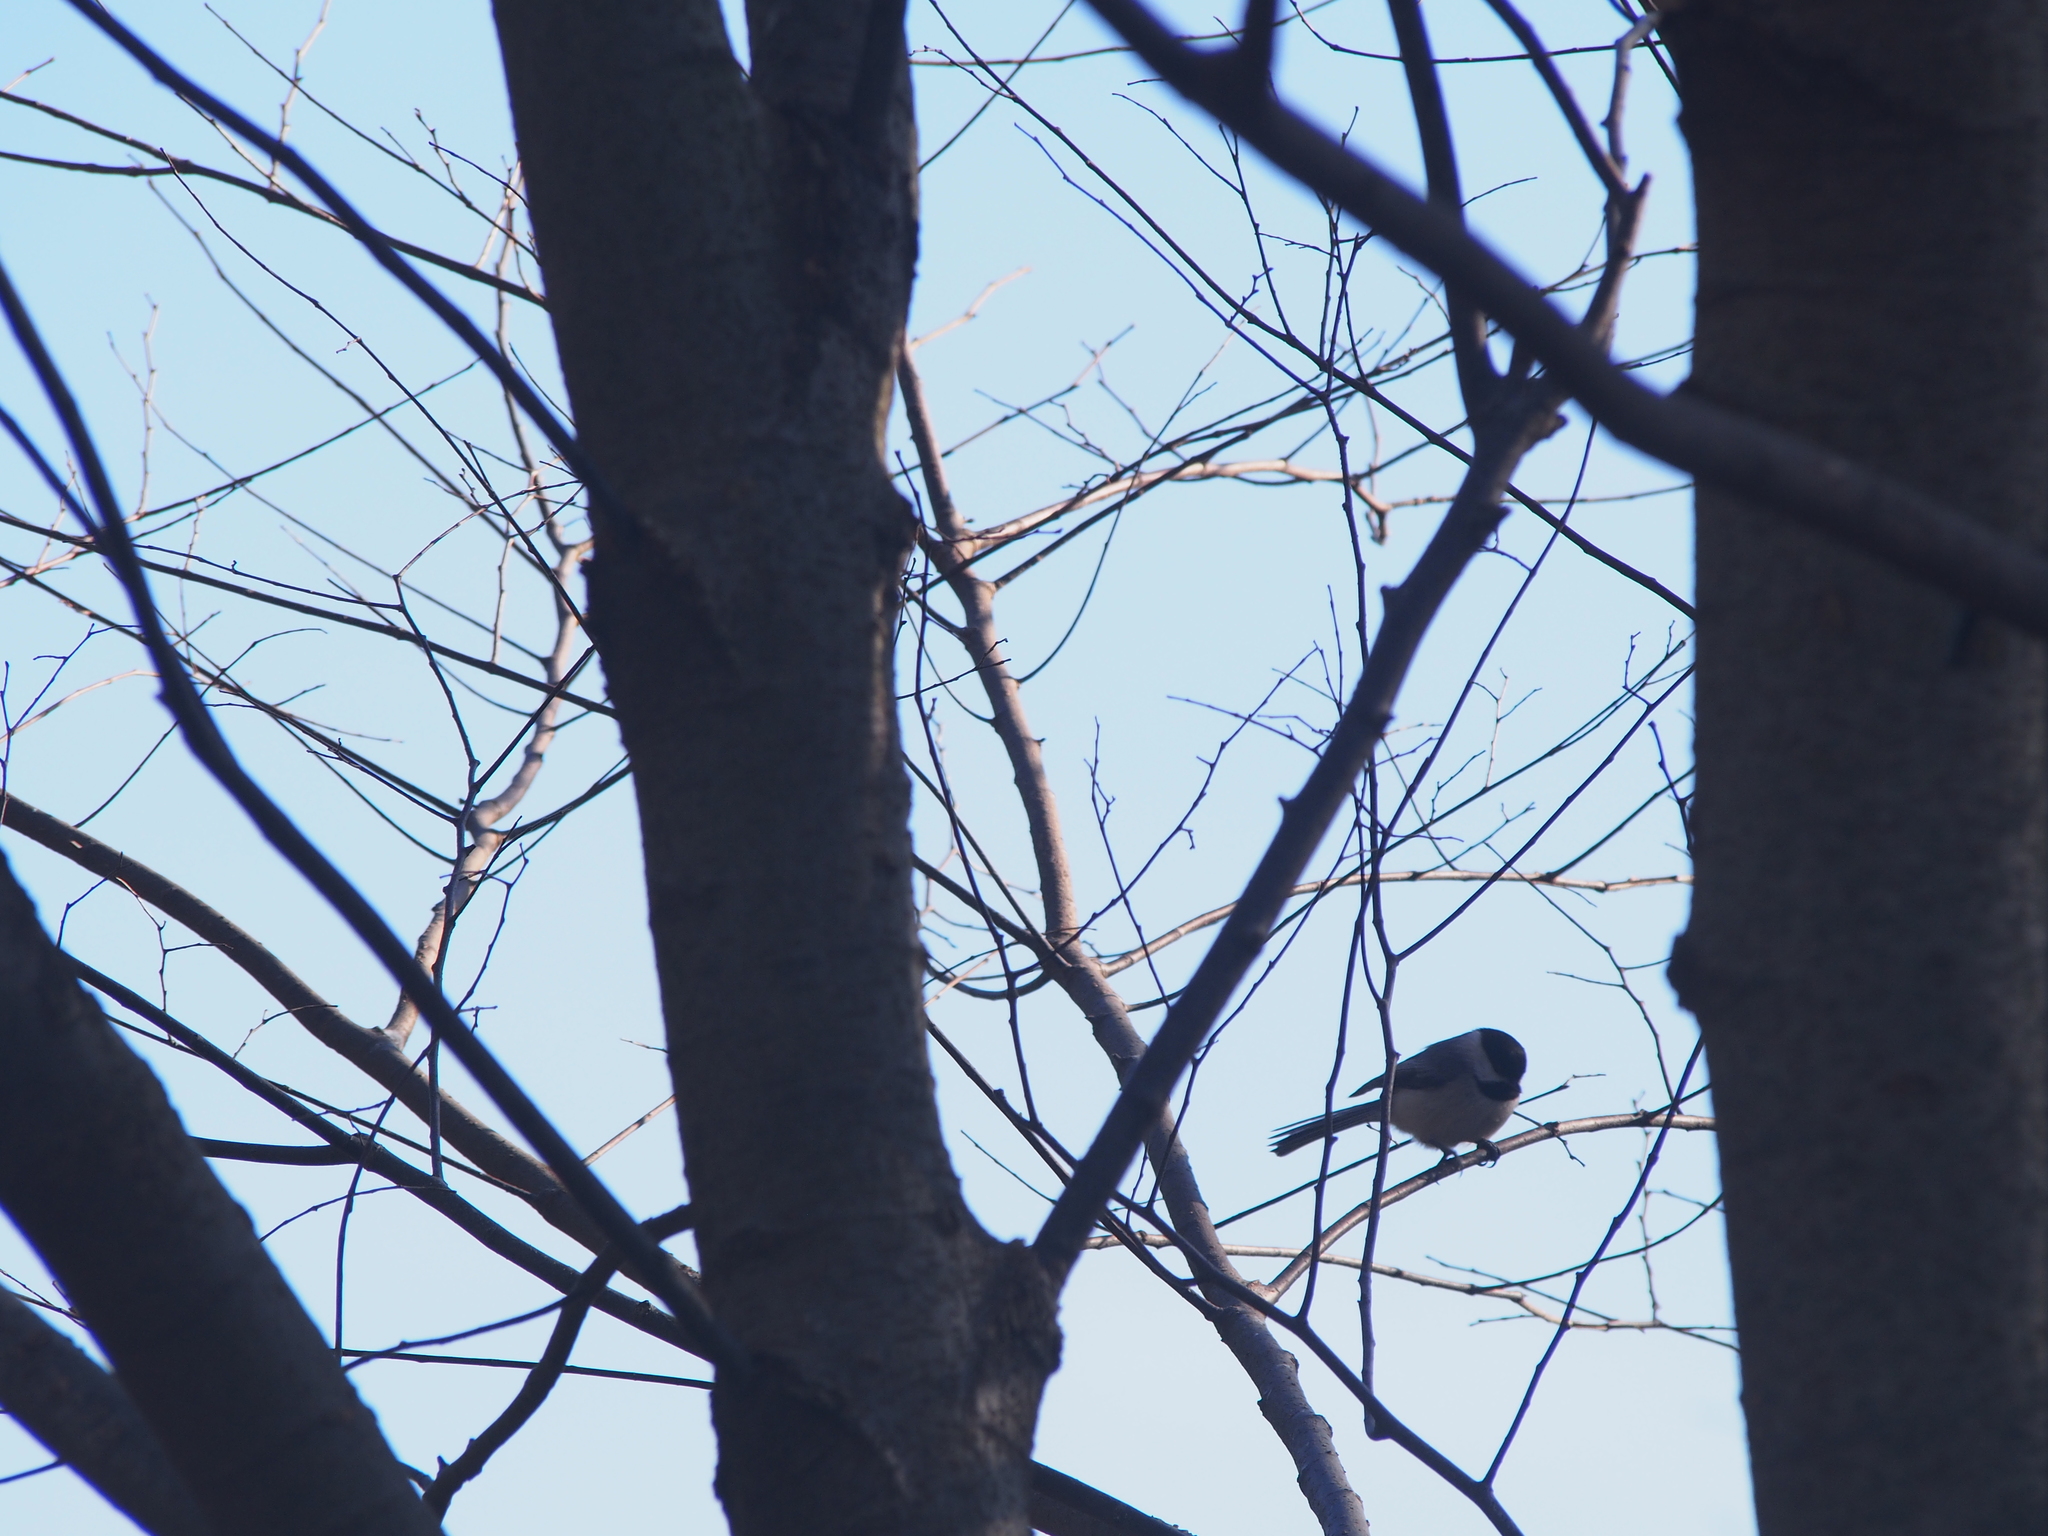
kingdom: Animalia
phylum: Chordata
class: Aves
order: Passeriformes
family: Paridae
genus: Poecile
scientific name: Poecile atricapillus
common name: Black-capped chickadee
